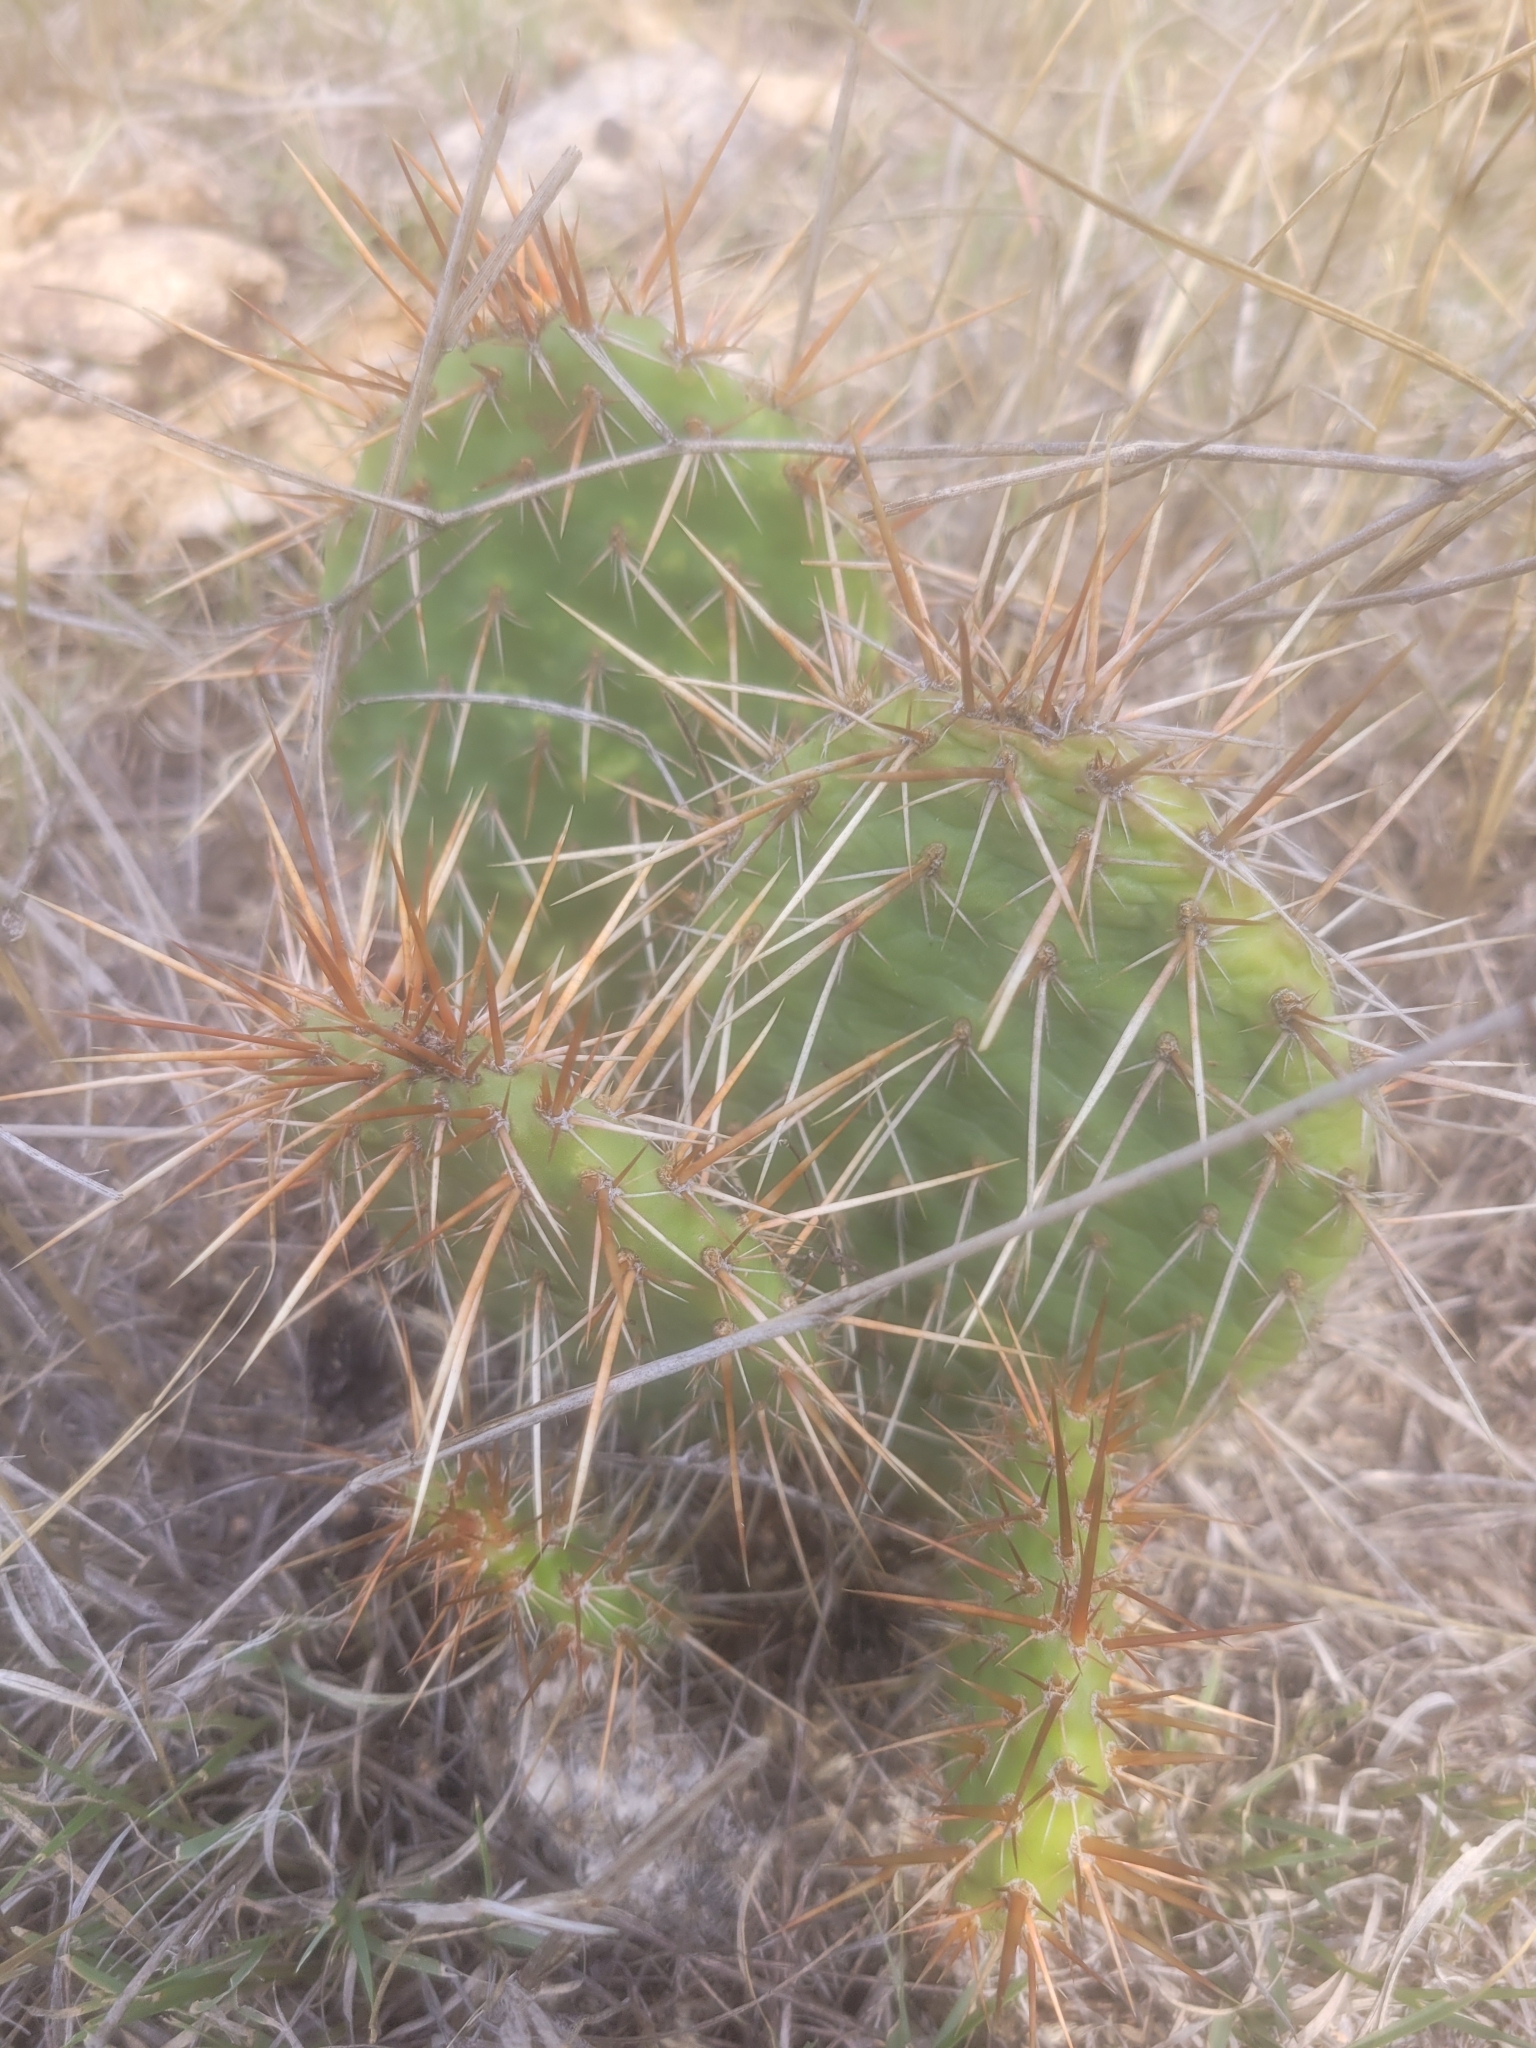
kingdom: Plantae
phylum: Tracheophyta
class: Magnoliopsida
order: Caryophyllales
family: Cactaceae
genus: Opuntia
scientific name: Opuntia polyacantha
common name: Plains prickly-pear
